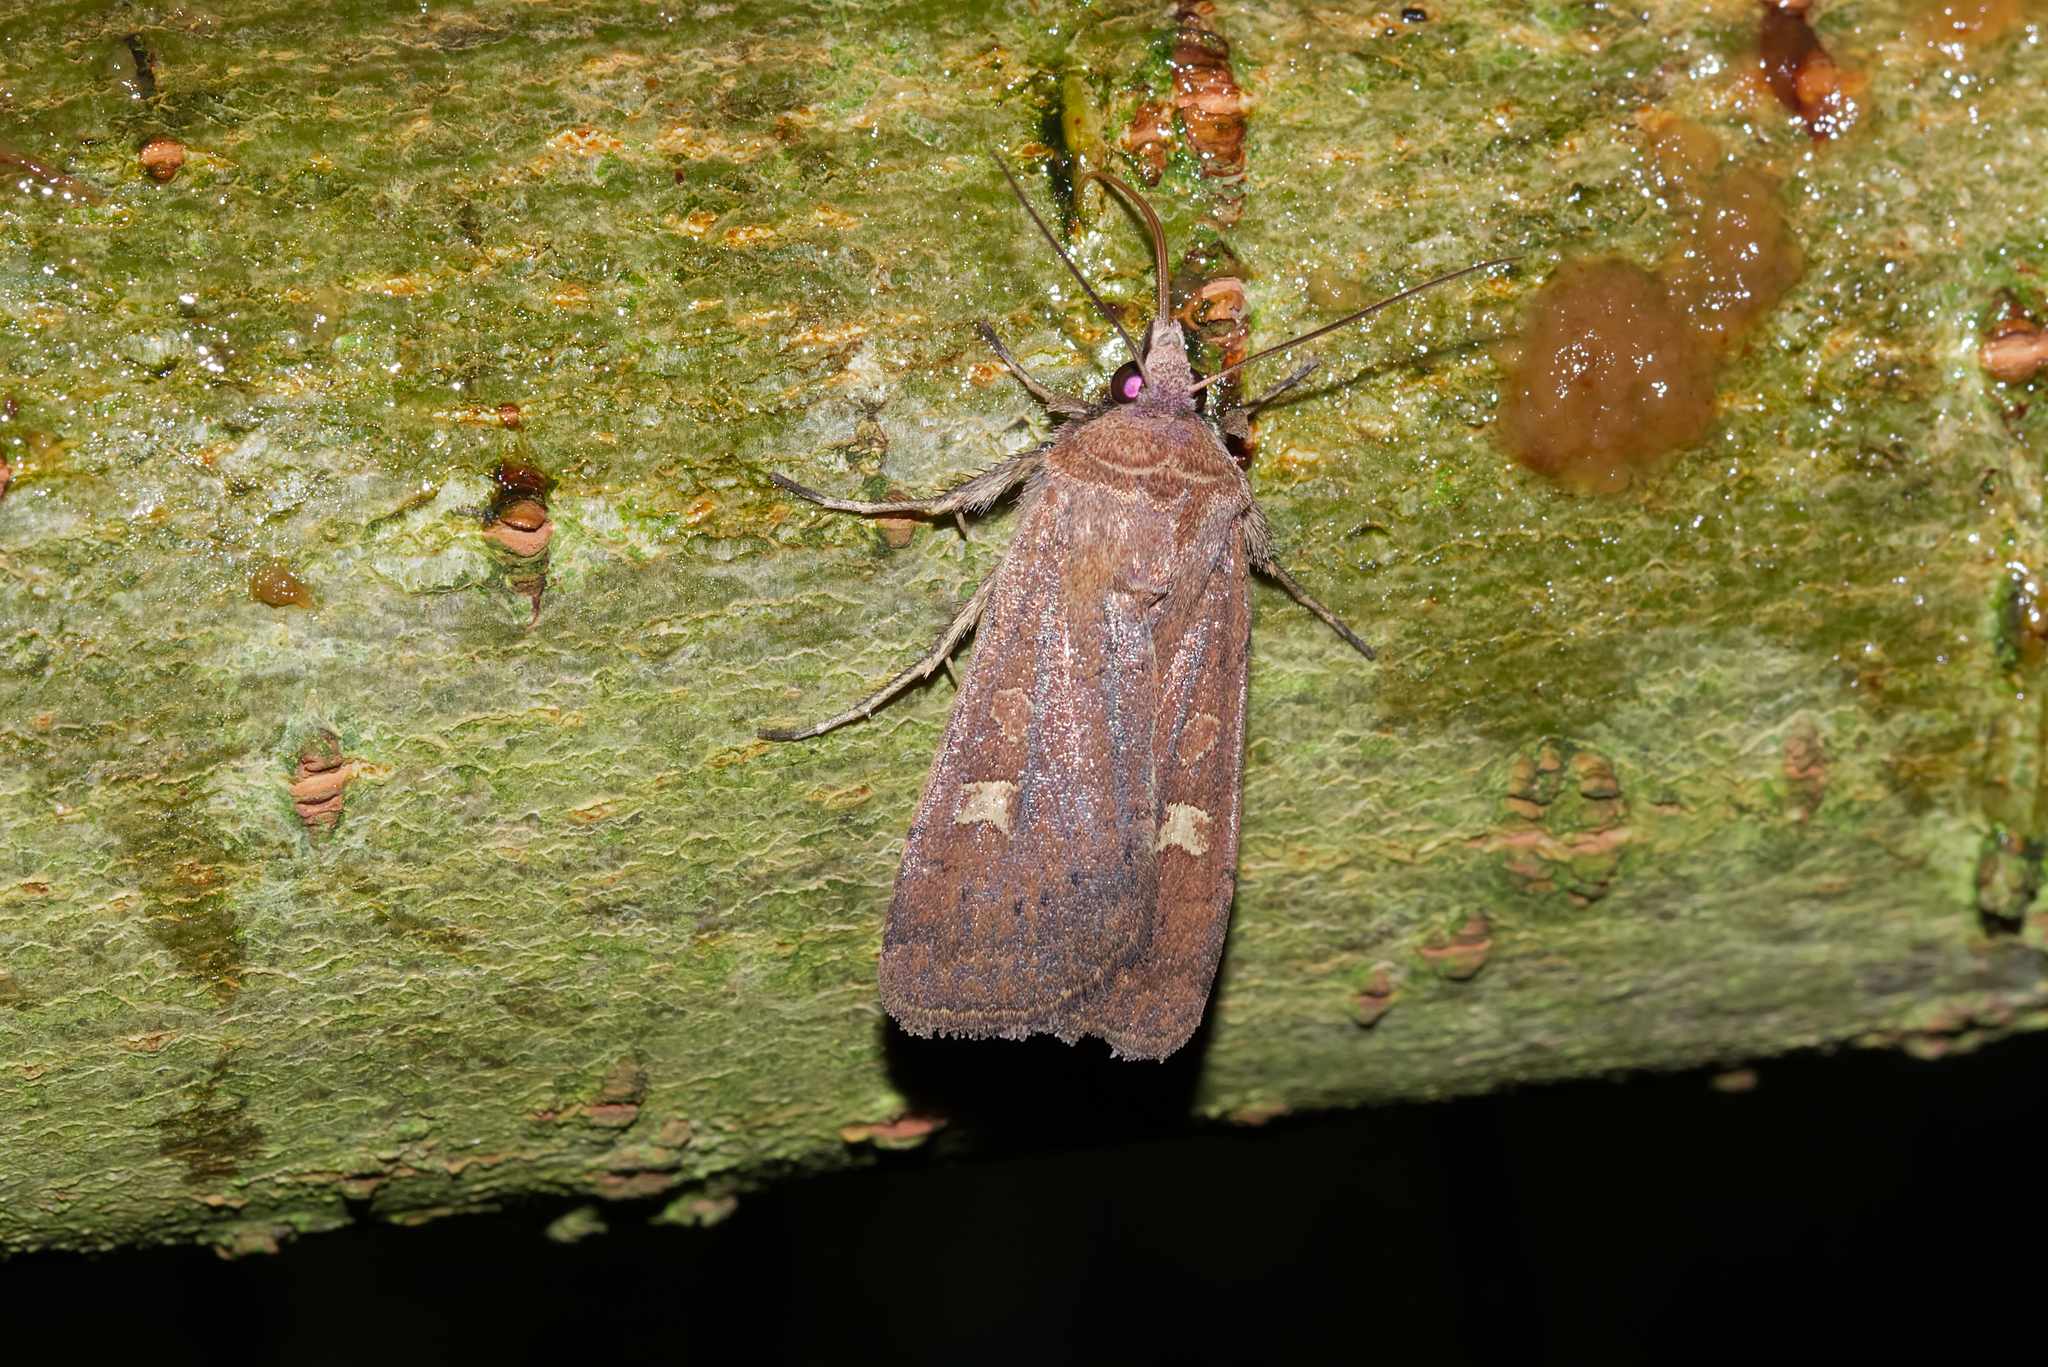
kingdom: Animalia
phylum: Arthropoda
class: Insecta
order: Lepidoptera
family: Noctuidae
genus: Xestia
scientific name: Xestia xanthographa
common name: Square-spot rustic
